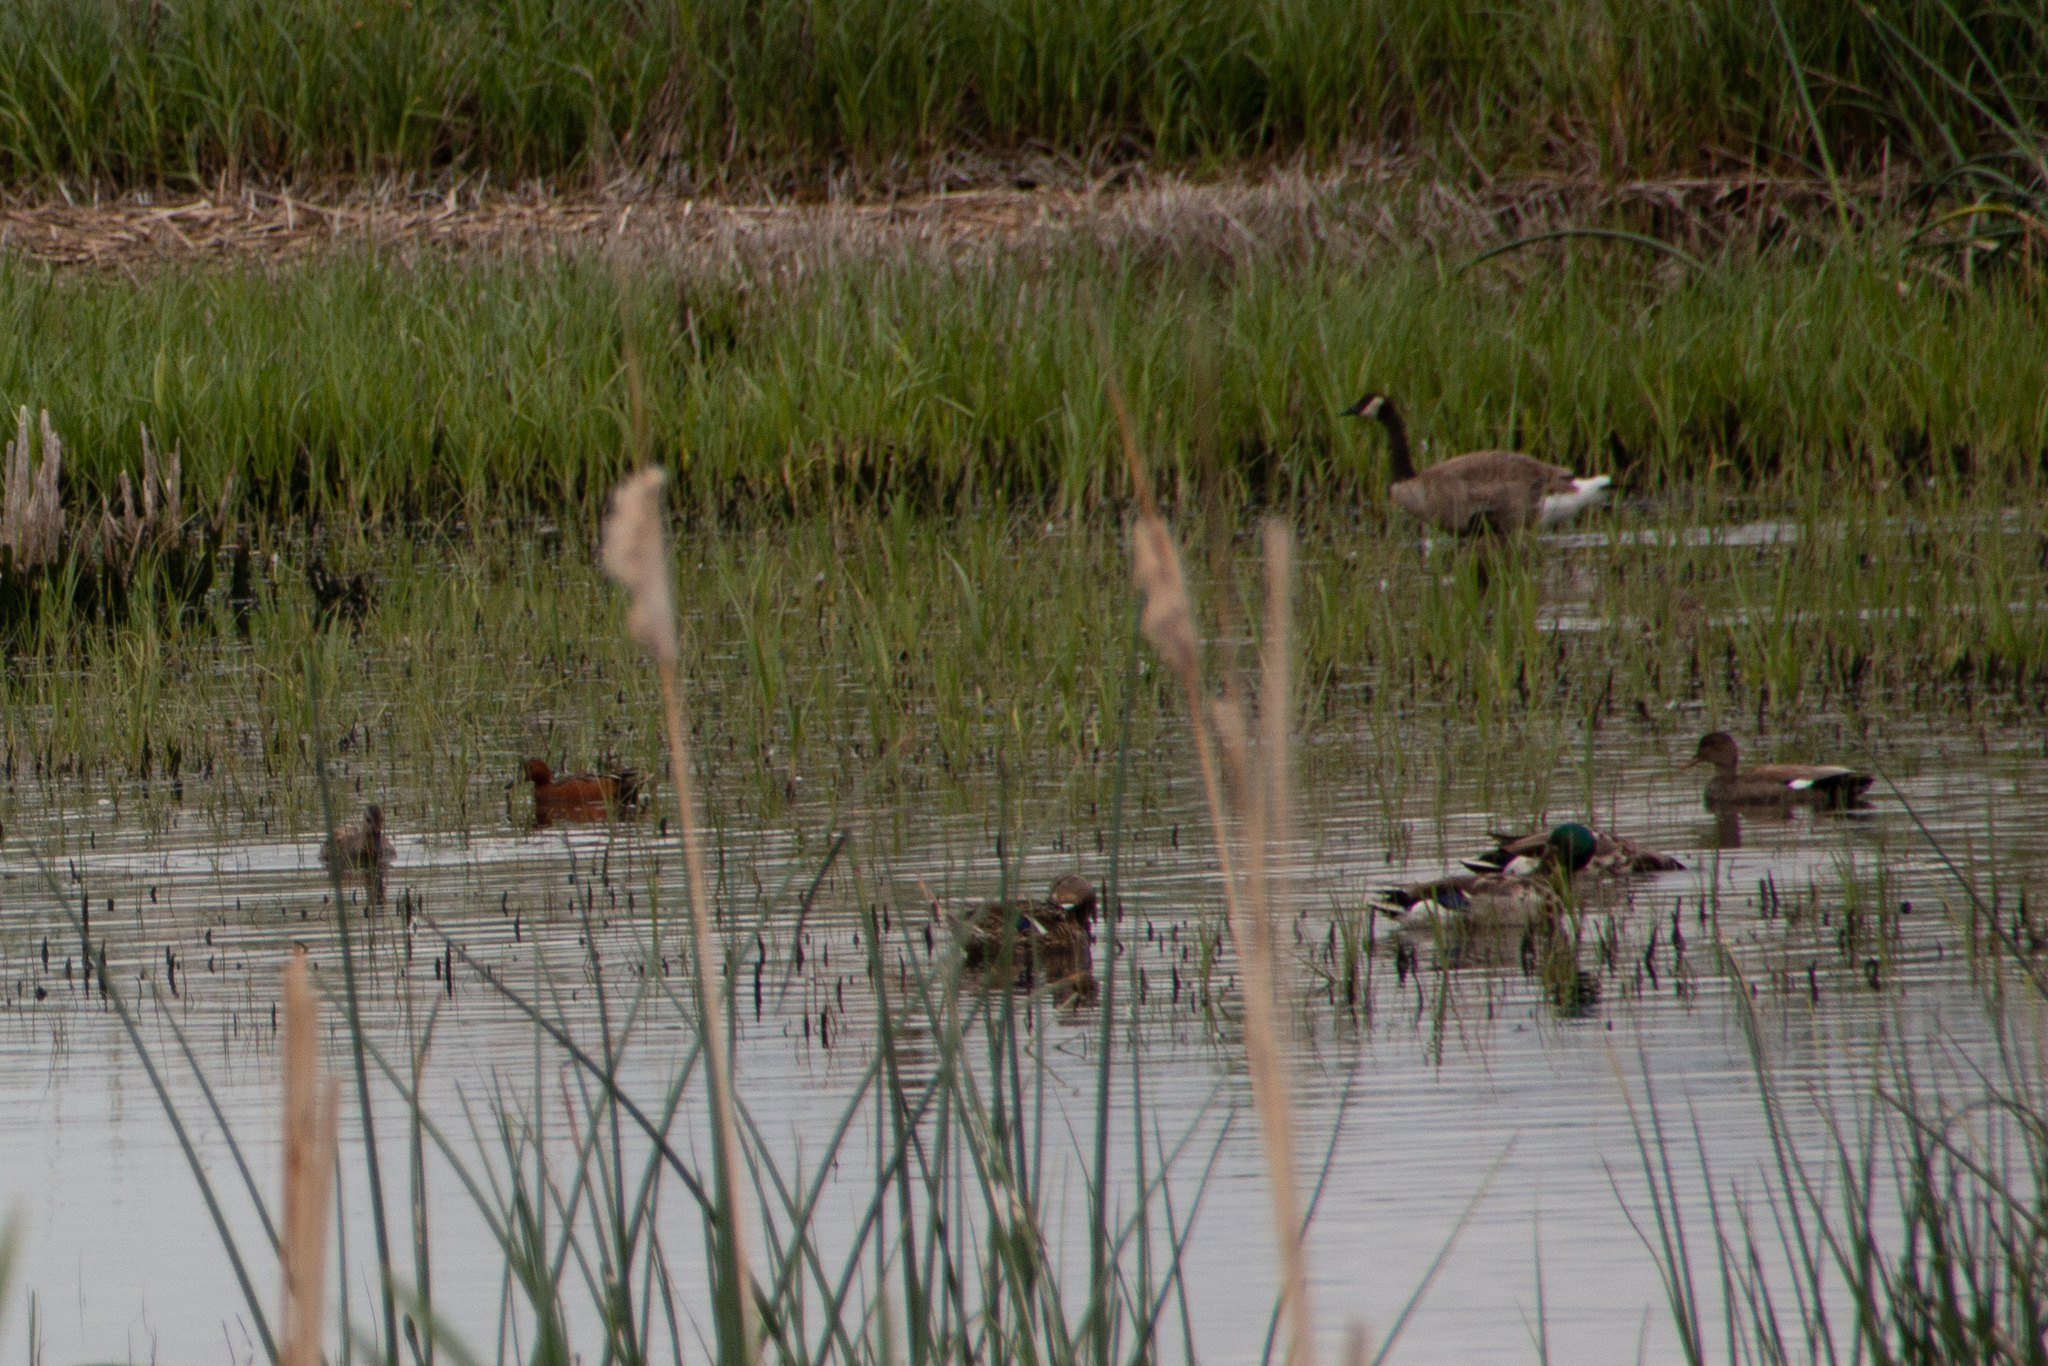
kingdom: Animalia
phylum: Chordata
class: Aves
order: Anseriformes
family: Anatidae
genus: Mareca
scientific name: Mareca strepera
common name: Gadwall
